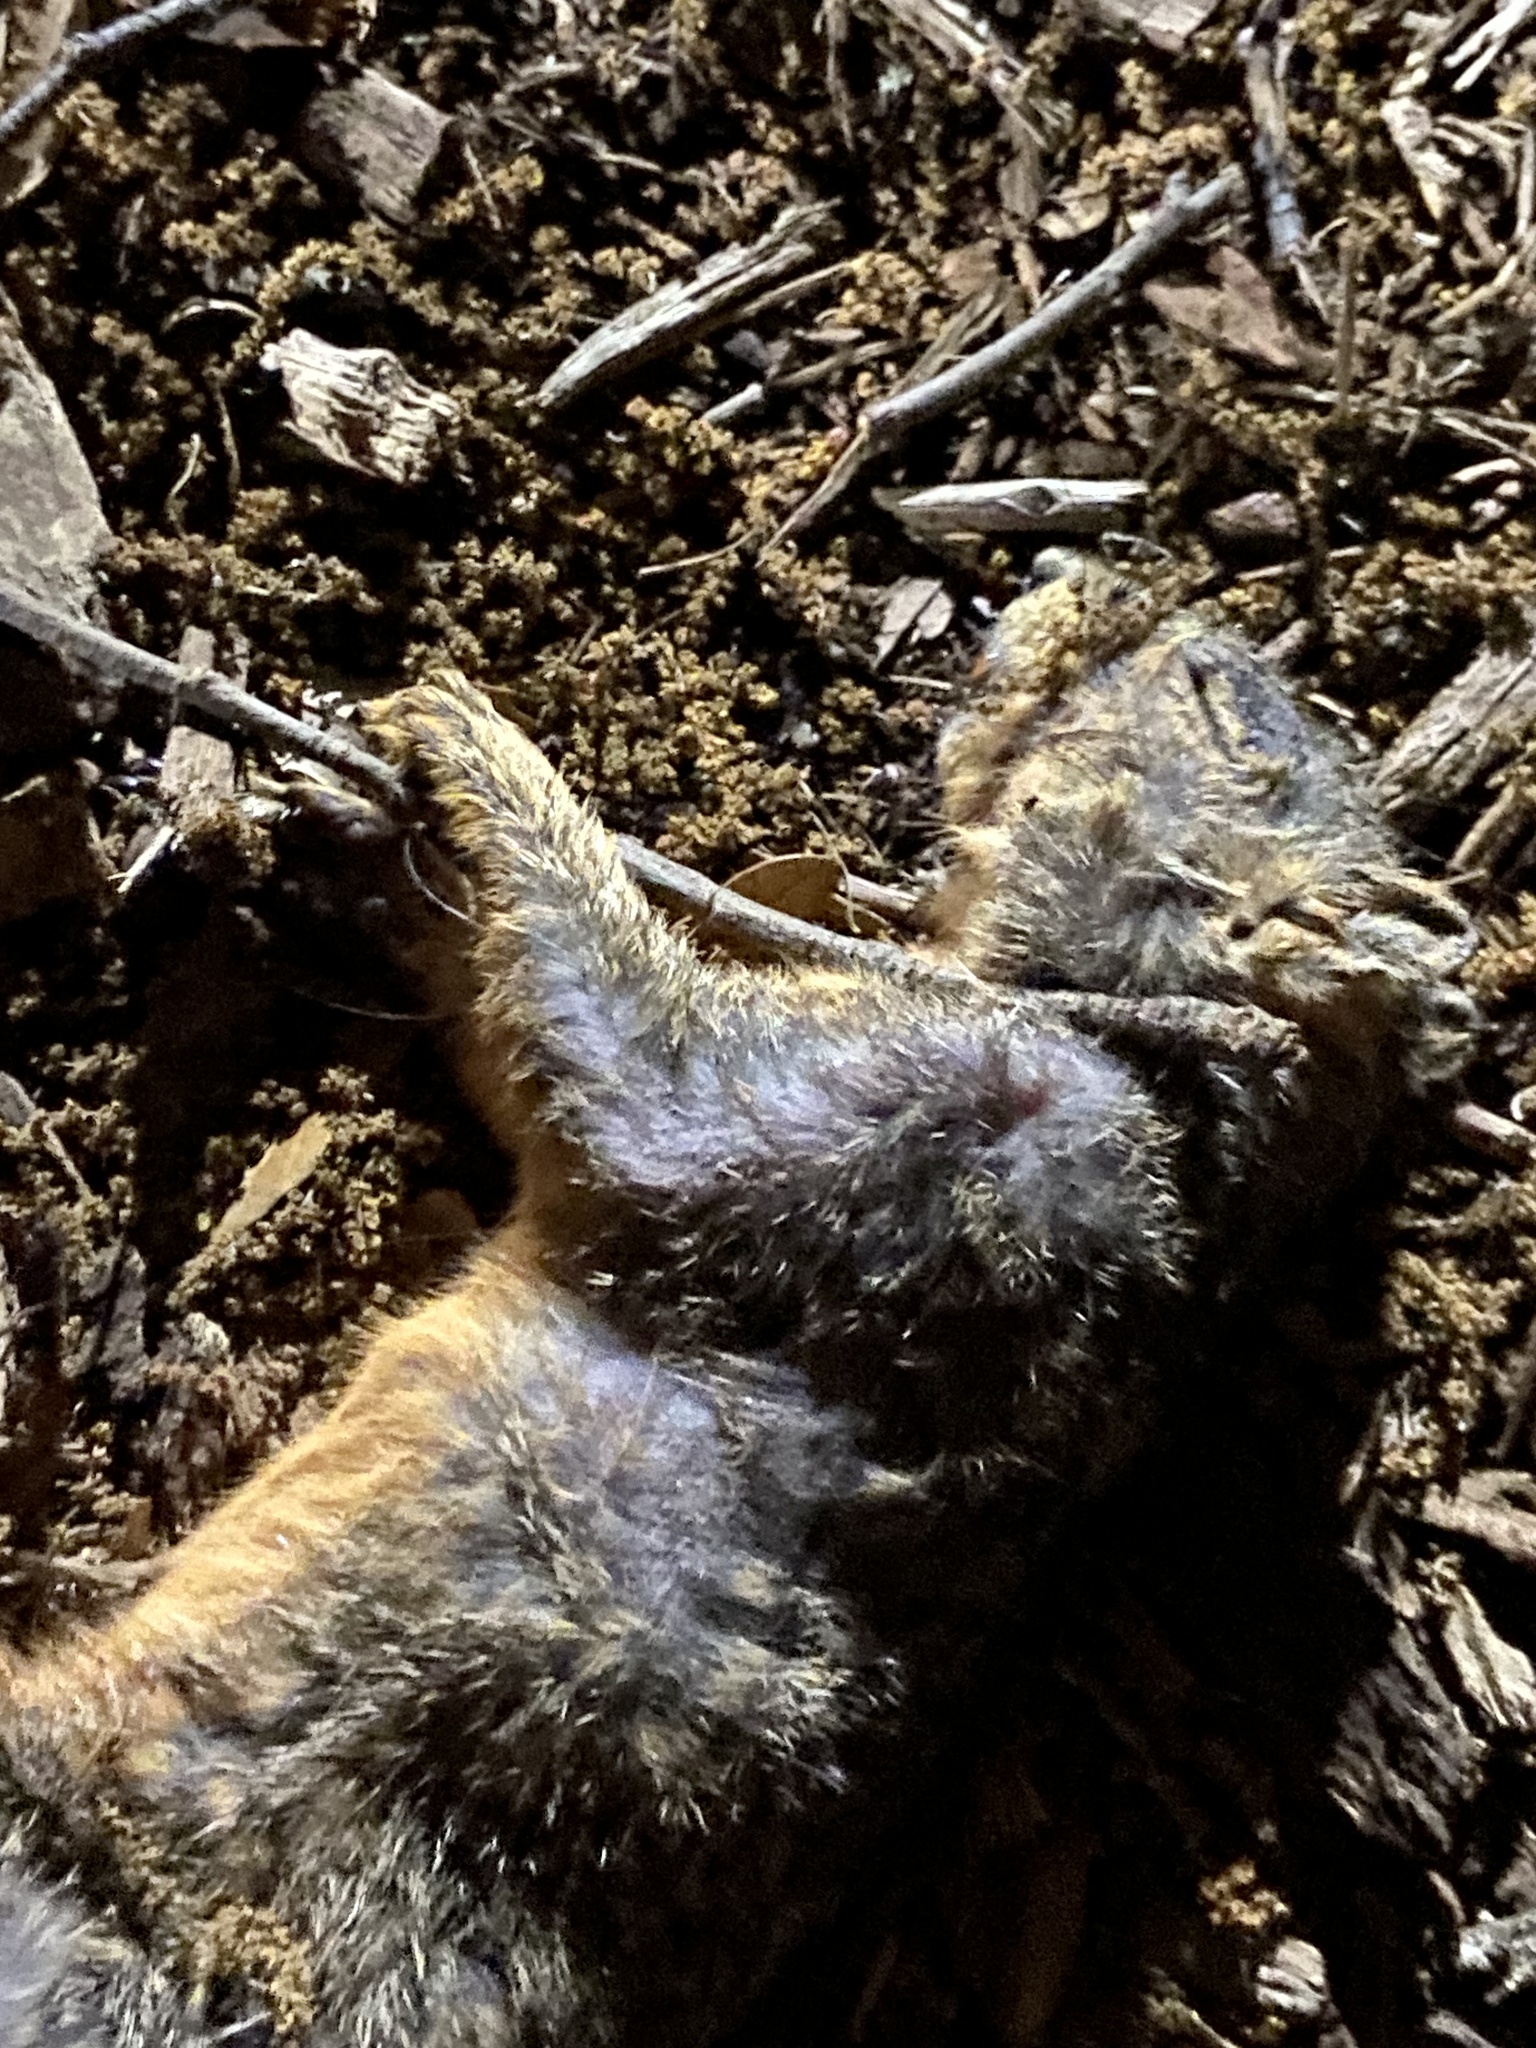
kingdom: Animalia
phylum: Chordata
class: Mammalia
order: Rodentia
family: Sciuridae
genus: Sciurus
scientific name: Sciurus niger
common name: Fox squirrel
